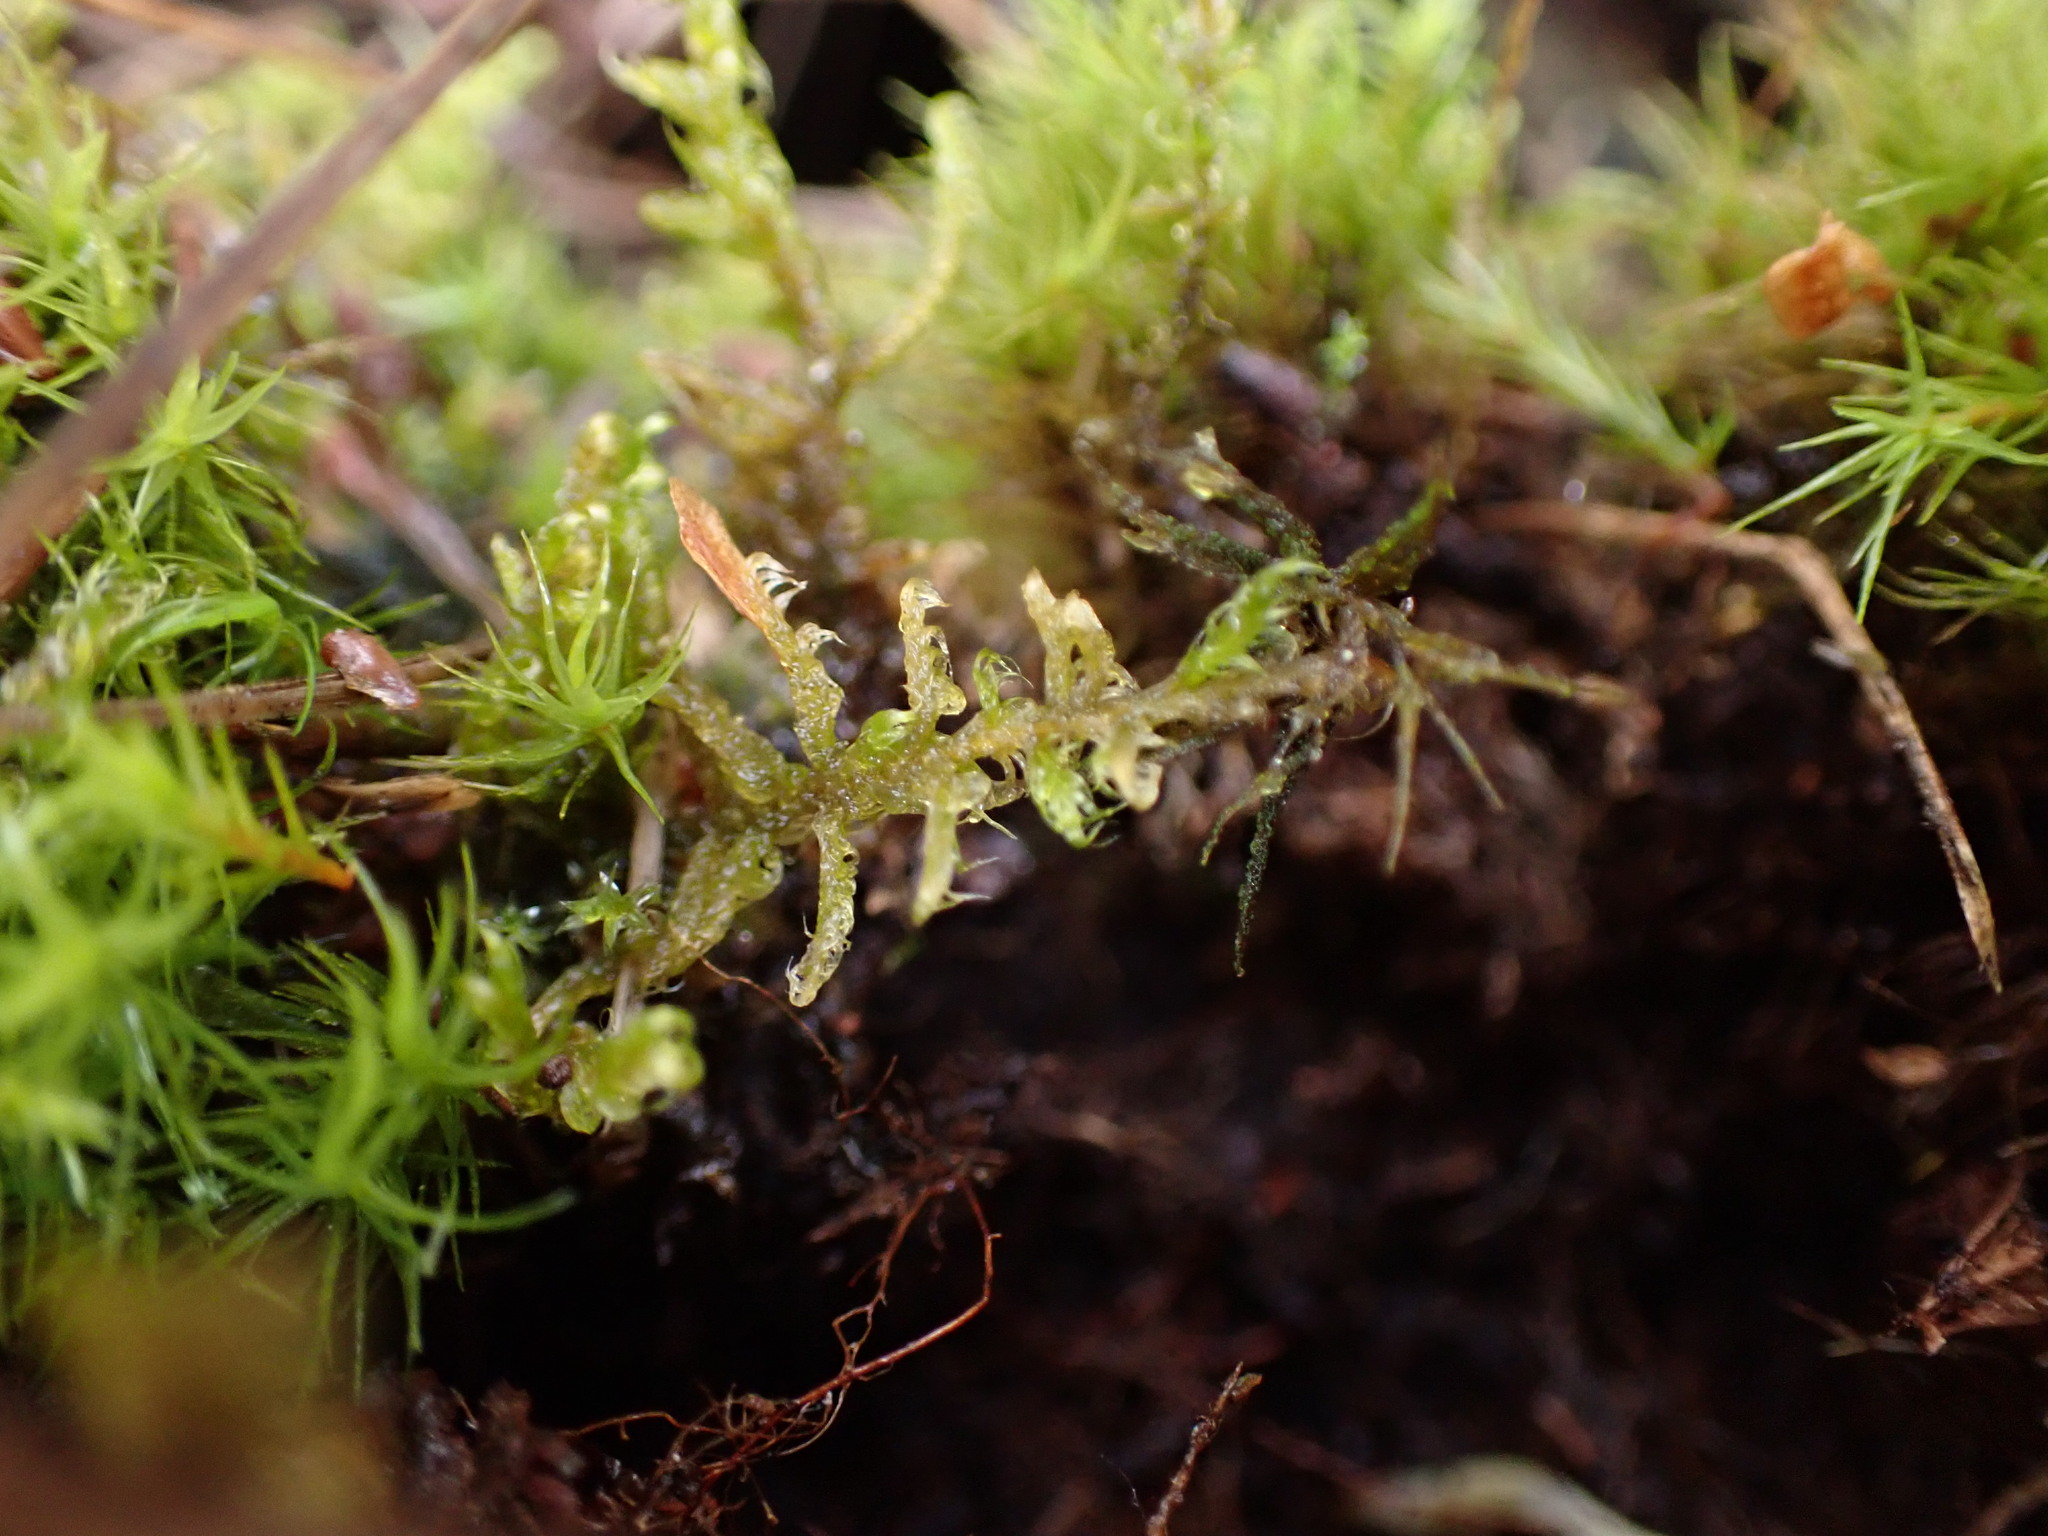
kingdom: Plantae
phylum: Bryophyta
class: Bryopsida
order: Hypnales
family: Scorpidiaceae
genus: Sanionia
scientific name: Sanionia uncinata
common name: Sickle moss
